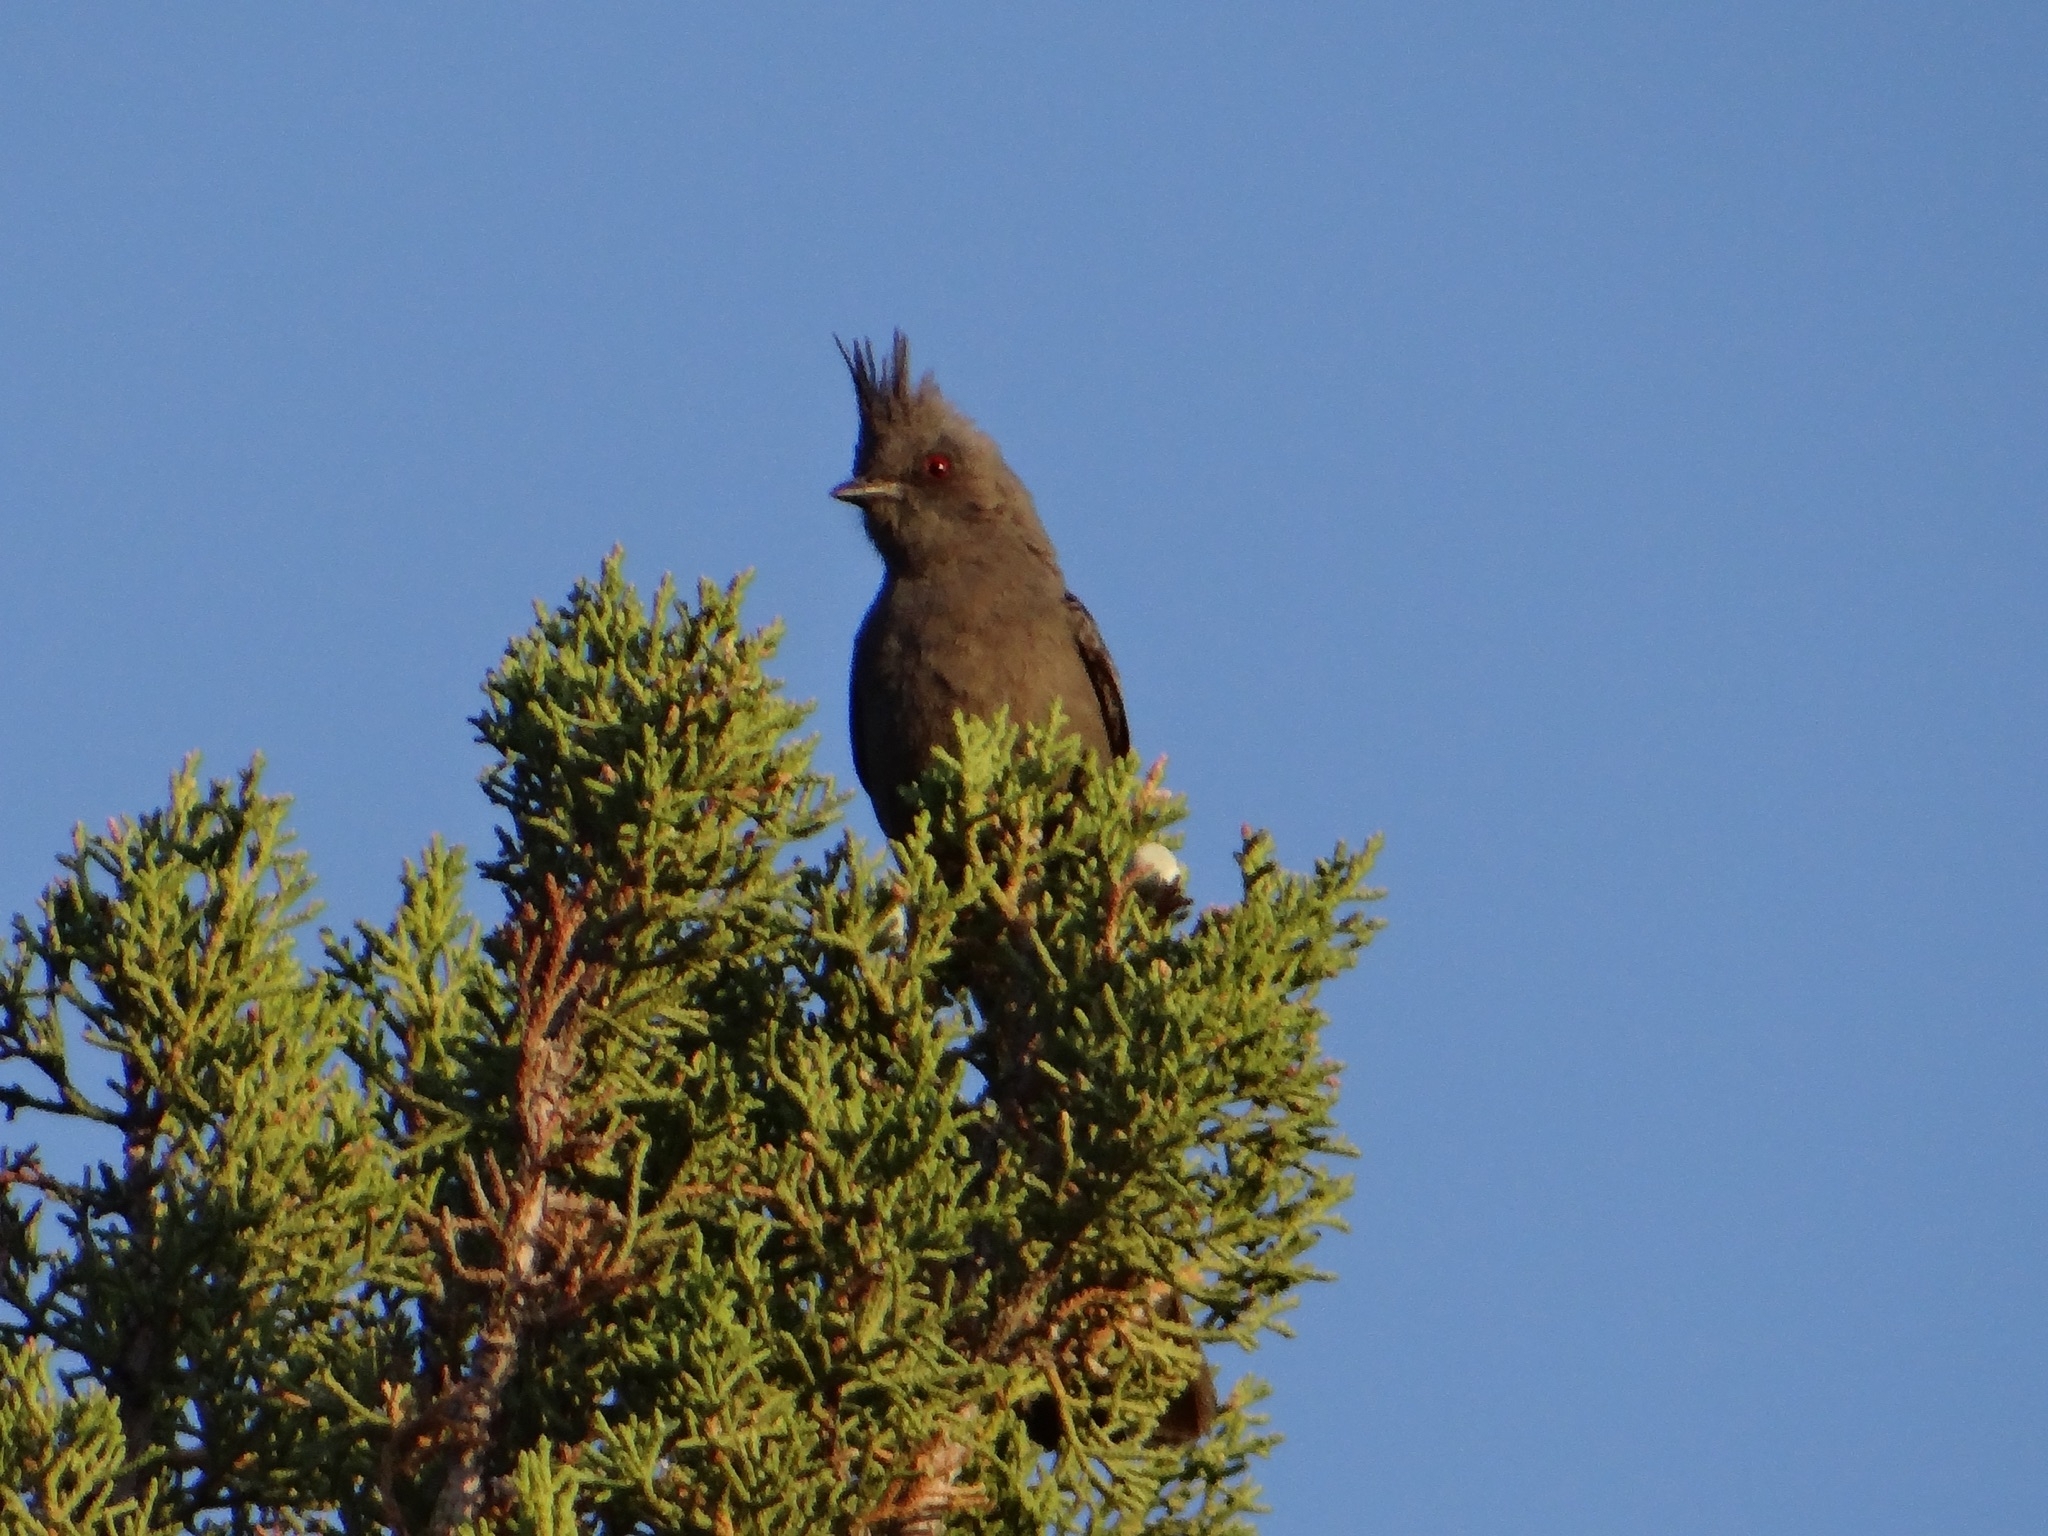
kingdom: Animalia
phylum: Chordata
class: Aves
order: Passeriformes
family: Ptilogonatidae
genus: Phainopepla
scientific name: Phainopepla nitens
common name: Phainopepla
